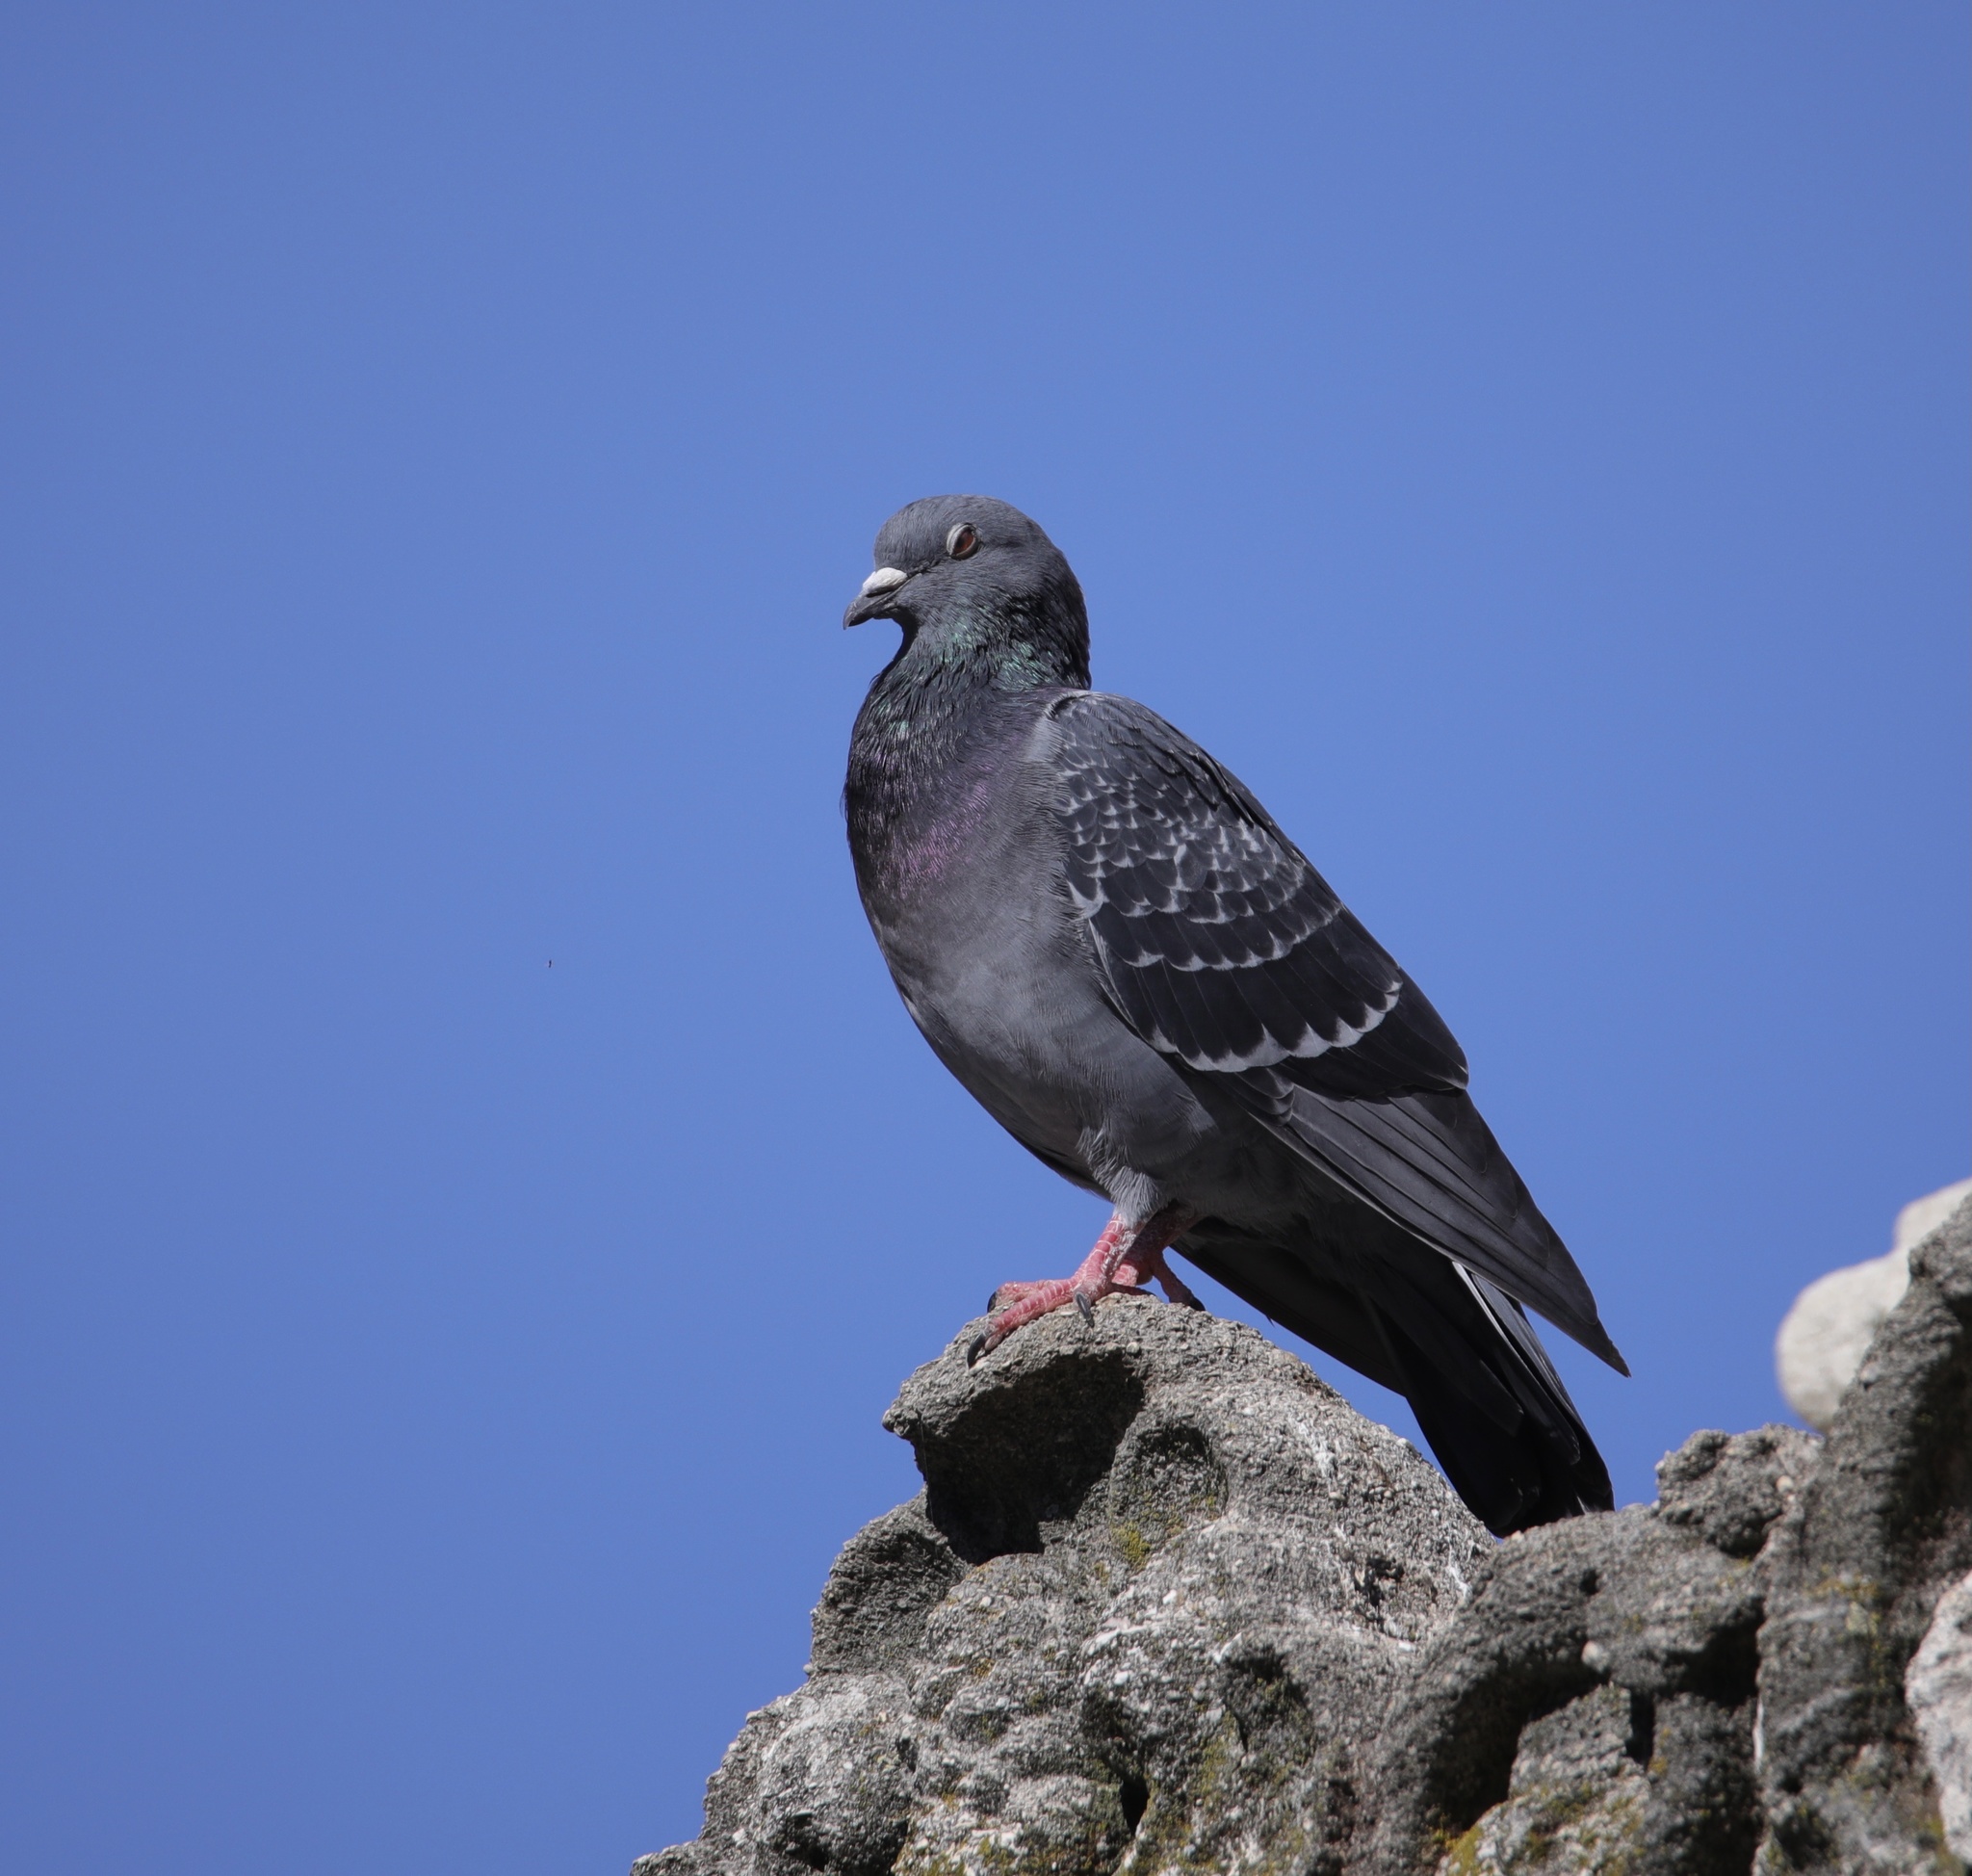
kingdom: Animalia
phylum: Chordata
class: Aves
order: Columbiformes
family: Columbidae
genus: Columba
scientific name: Columba livia
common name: Rock pigeon
